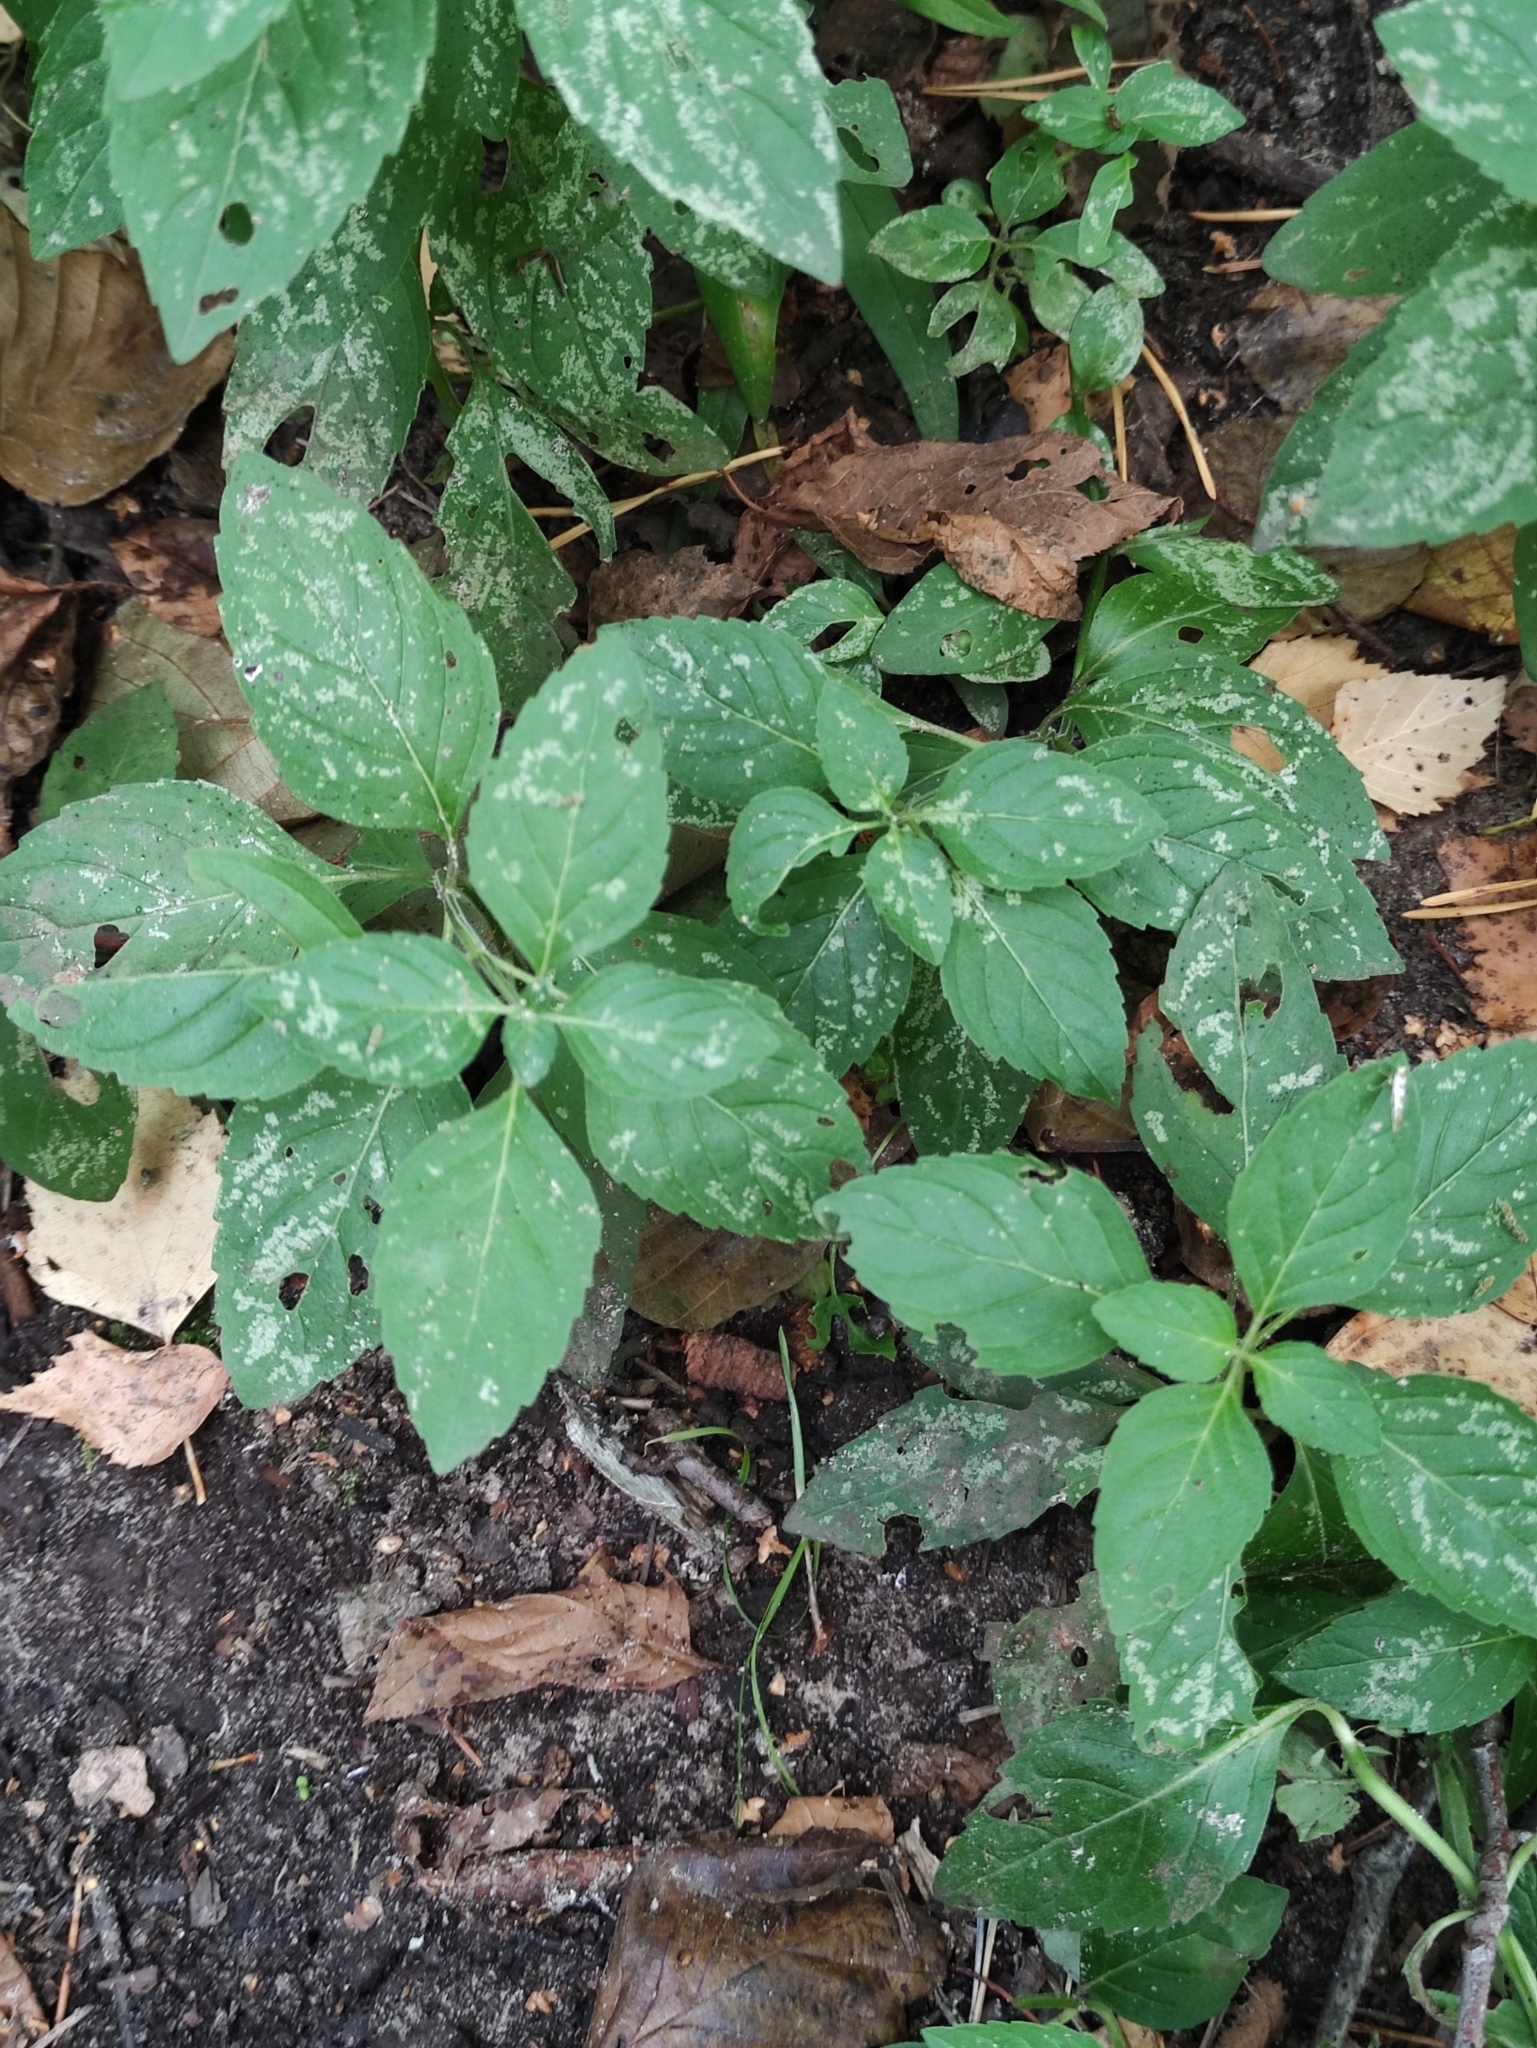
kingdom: Plantae
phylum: Tracheophyta
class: Magnoliopsida
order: Lamiales
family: Lamiaceae
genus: Mentha
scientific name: Mentha arvensis
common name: Corn mint
